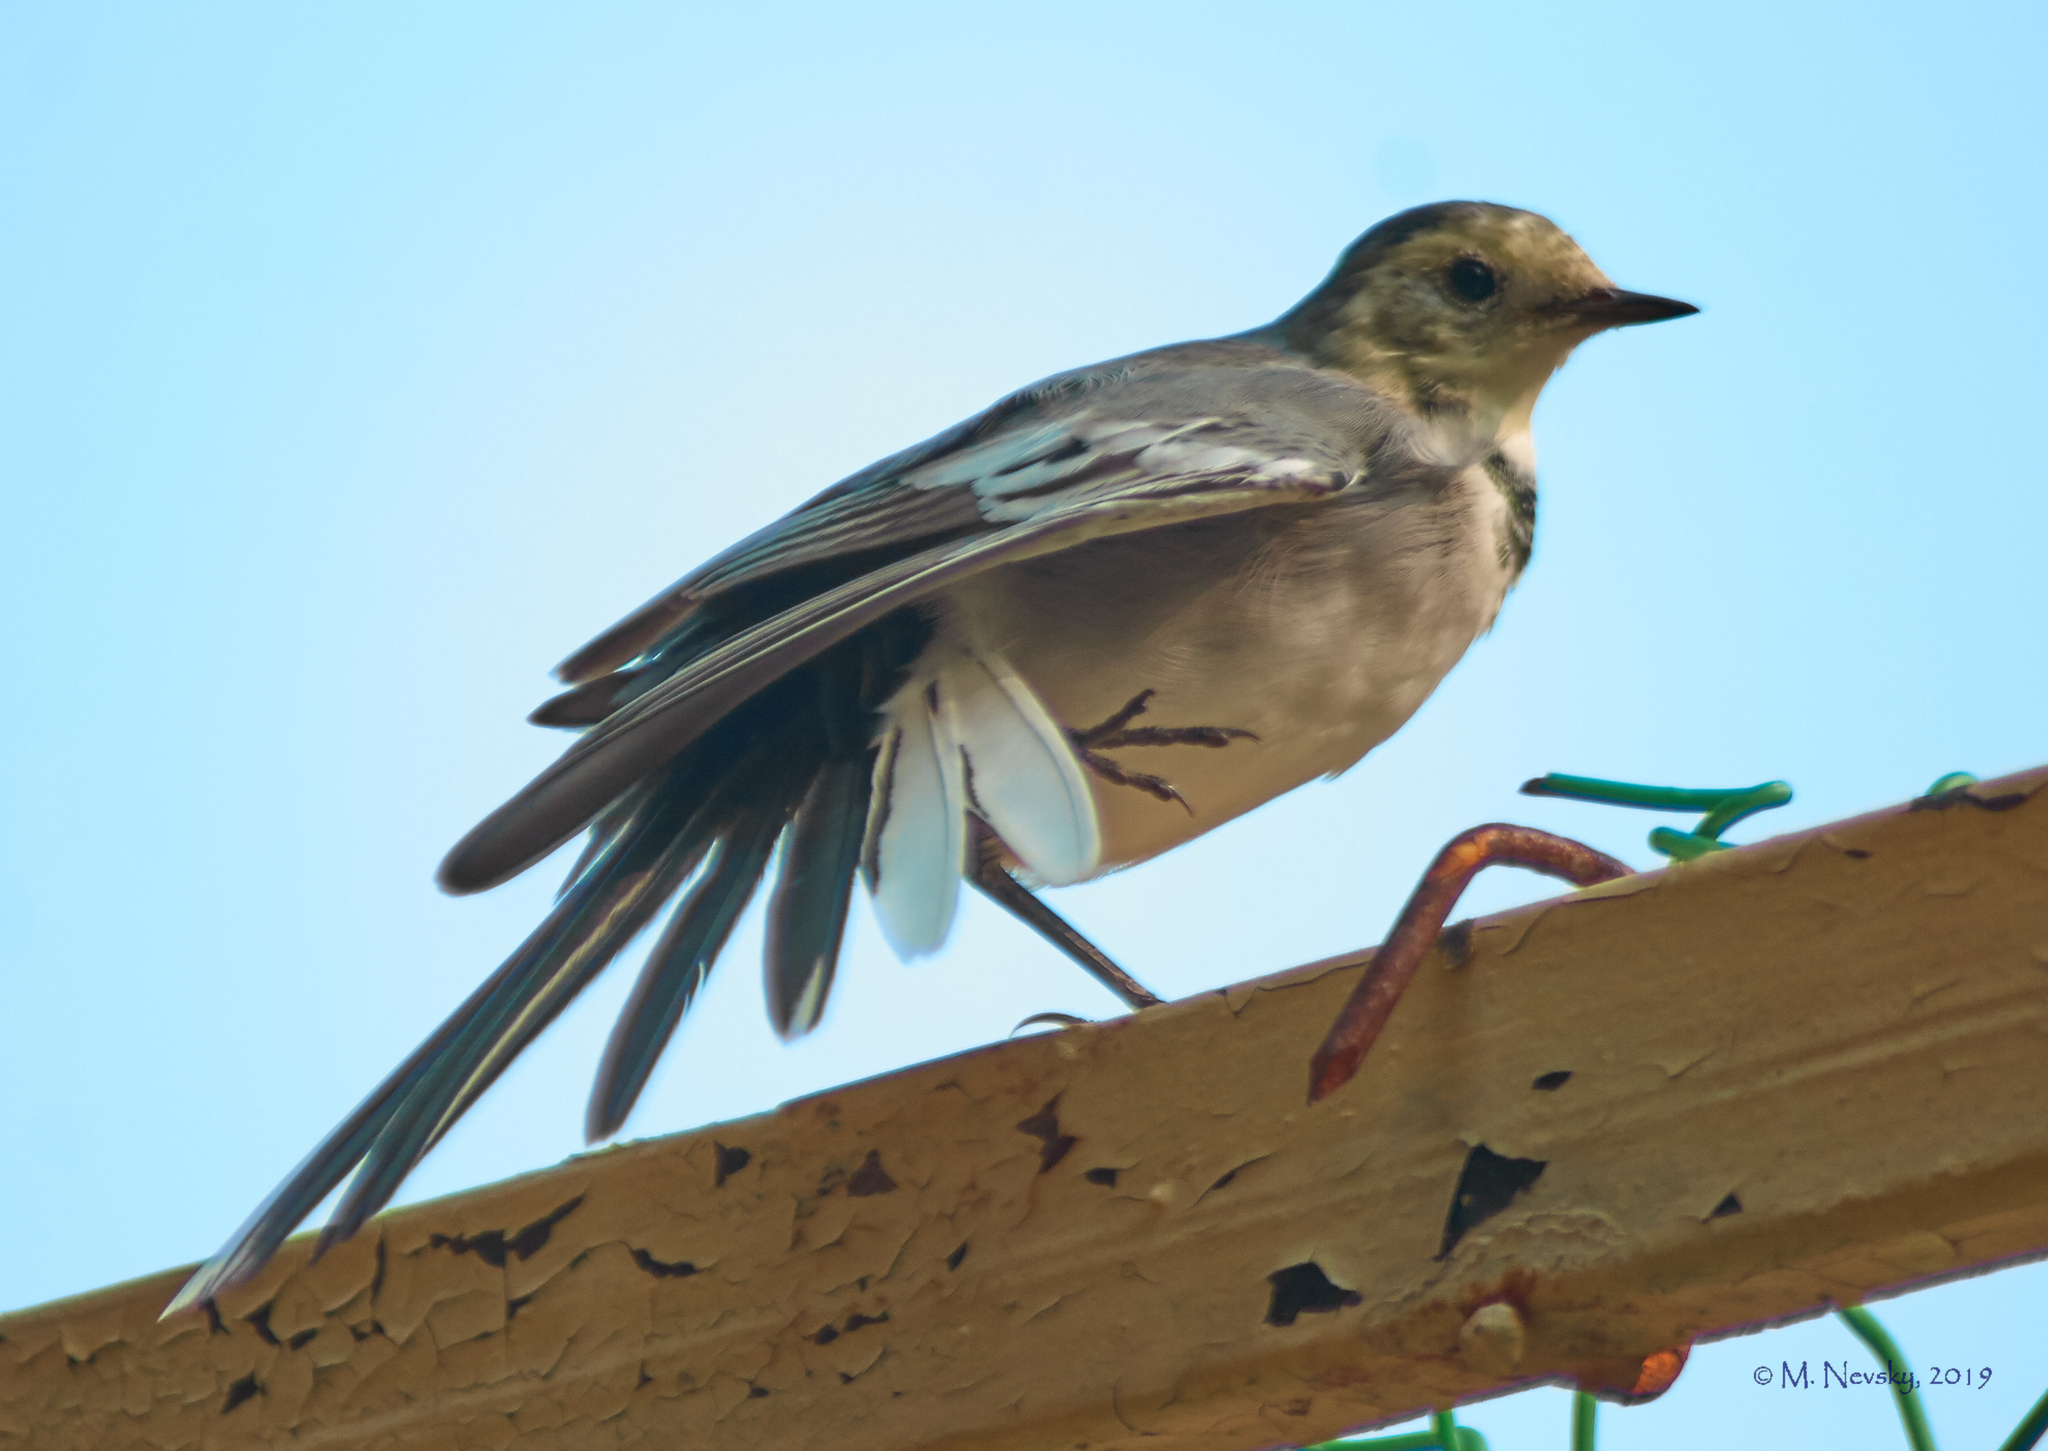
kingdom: Animalia
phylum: Chordata
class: Aves
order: Passeriformes
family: Motacillidae
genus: Motacilla
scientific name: Motacilla alba
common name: White wagtail
